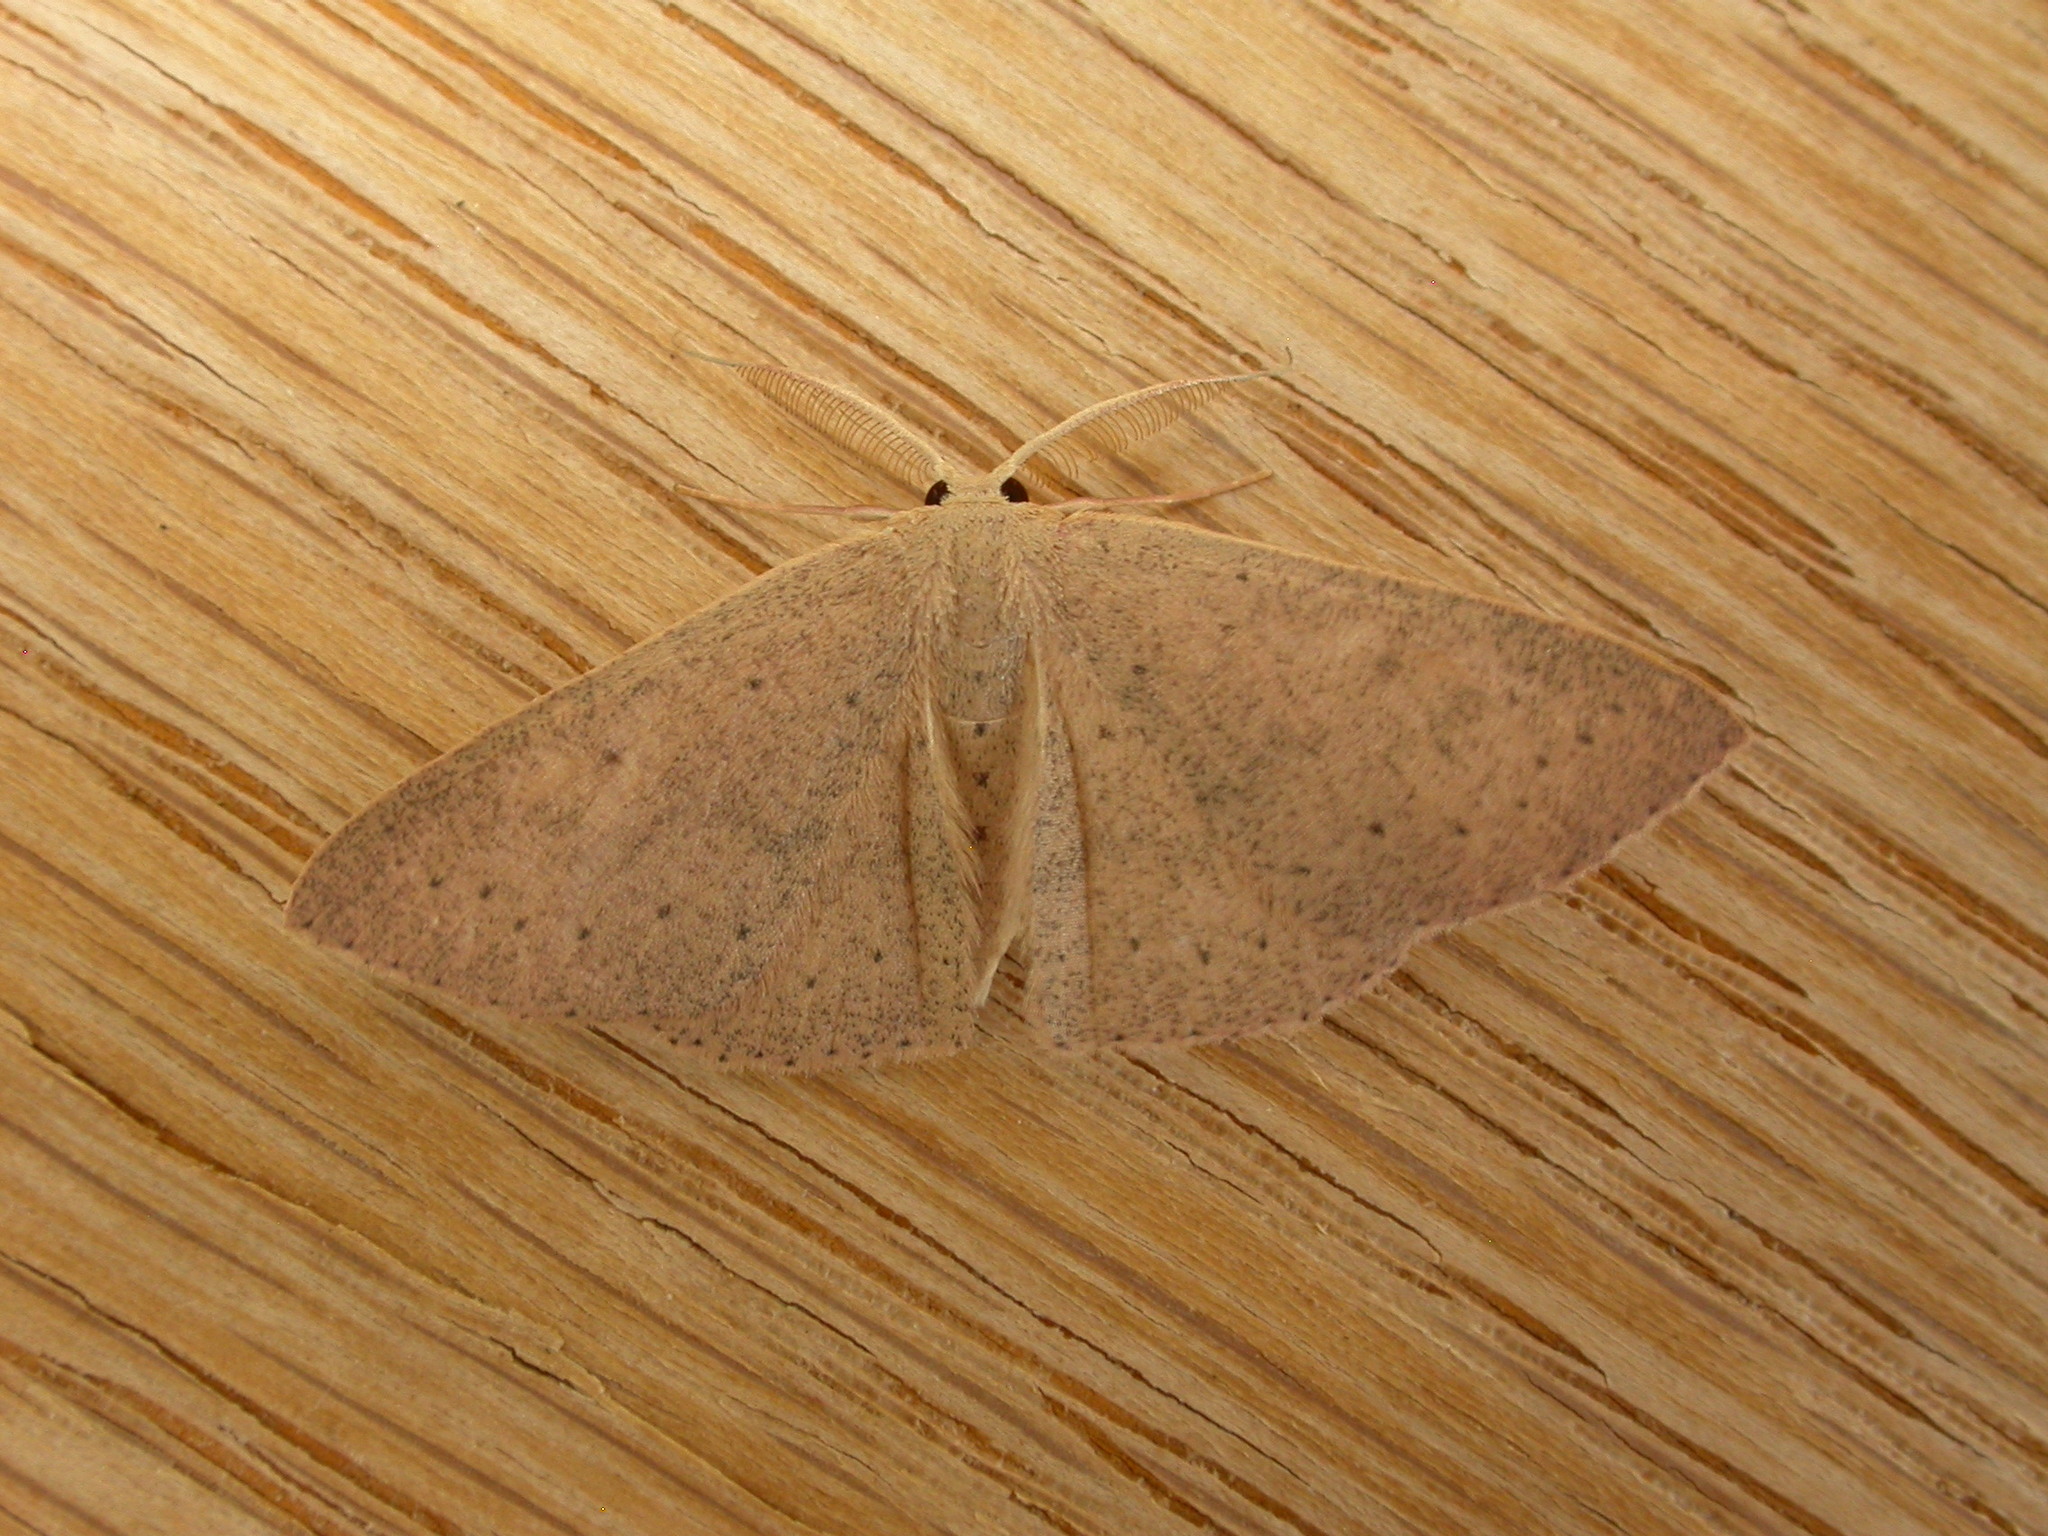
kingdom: Animalia
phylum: Arthropoda
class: Insecta
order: Lepidoptera
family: Geometridae
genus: Cyclophora
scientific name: Cyclophora obstataria
